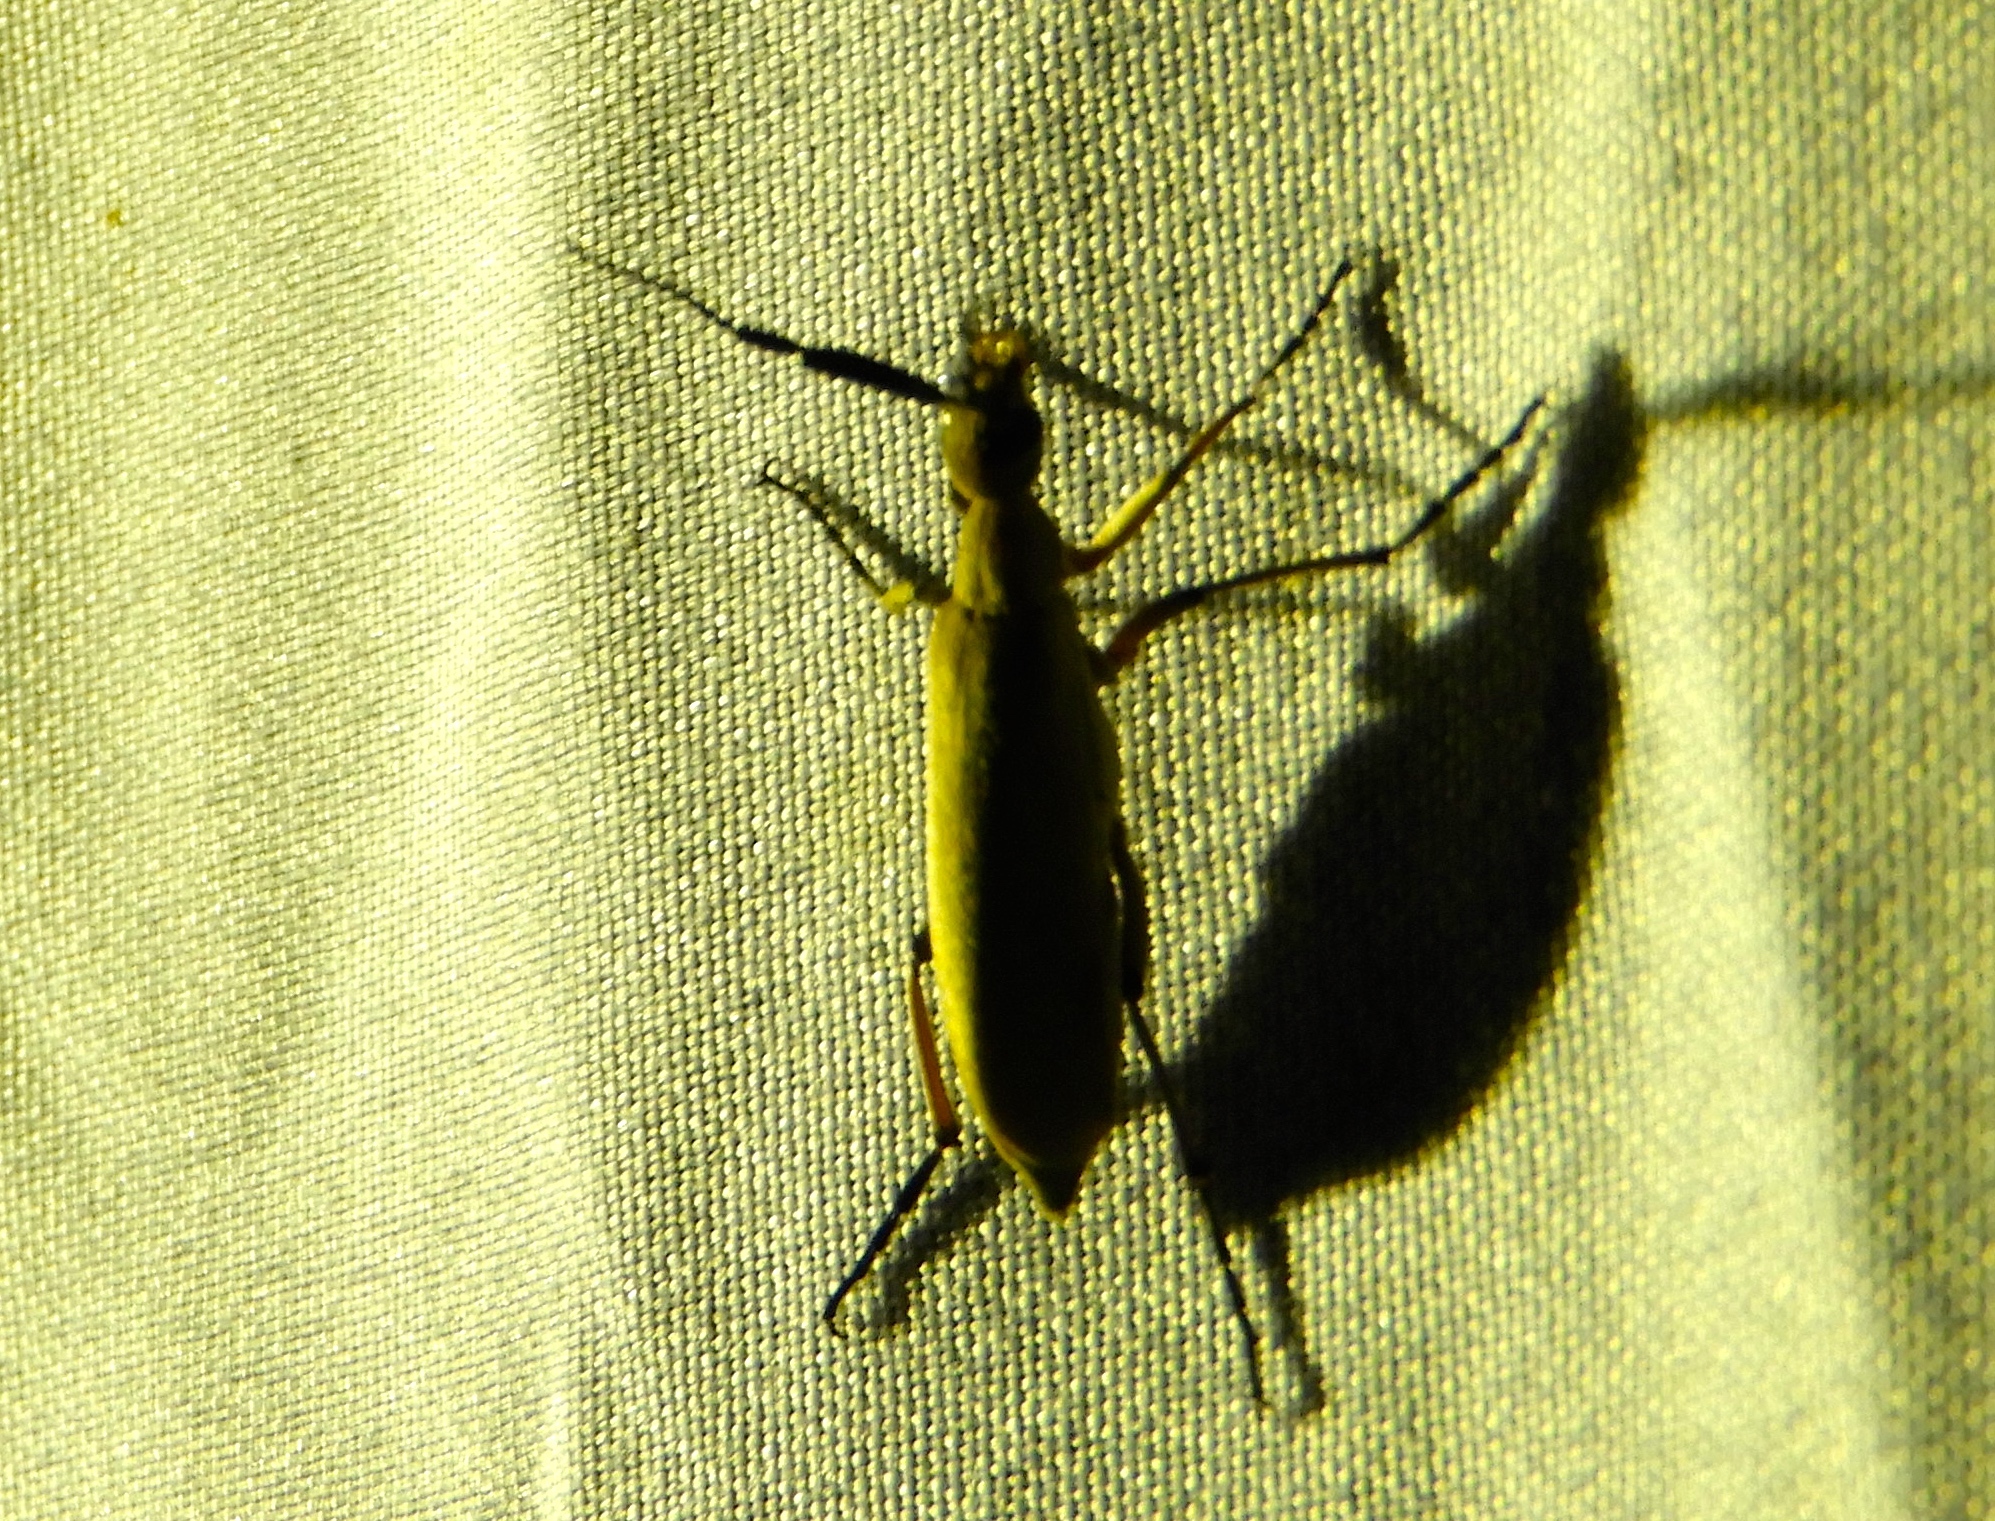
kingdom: Animalia
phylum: Arthropoda
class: Insecta
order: Coleoptera
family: Meloidae
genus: Epicauta
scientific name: Epicauta
